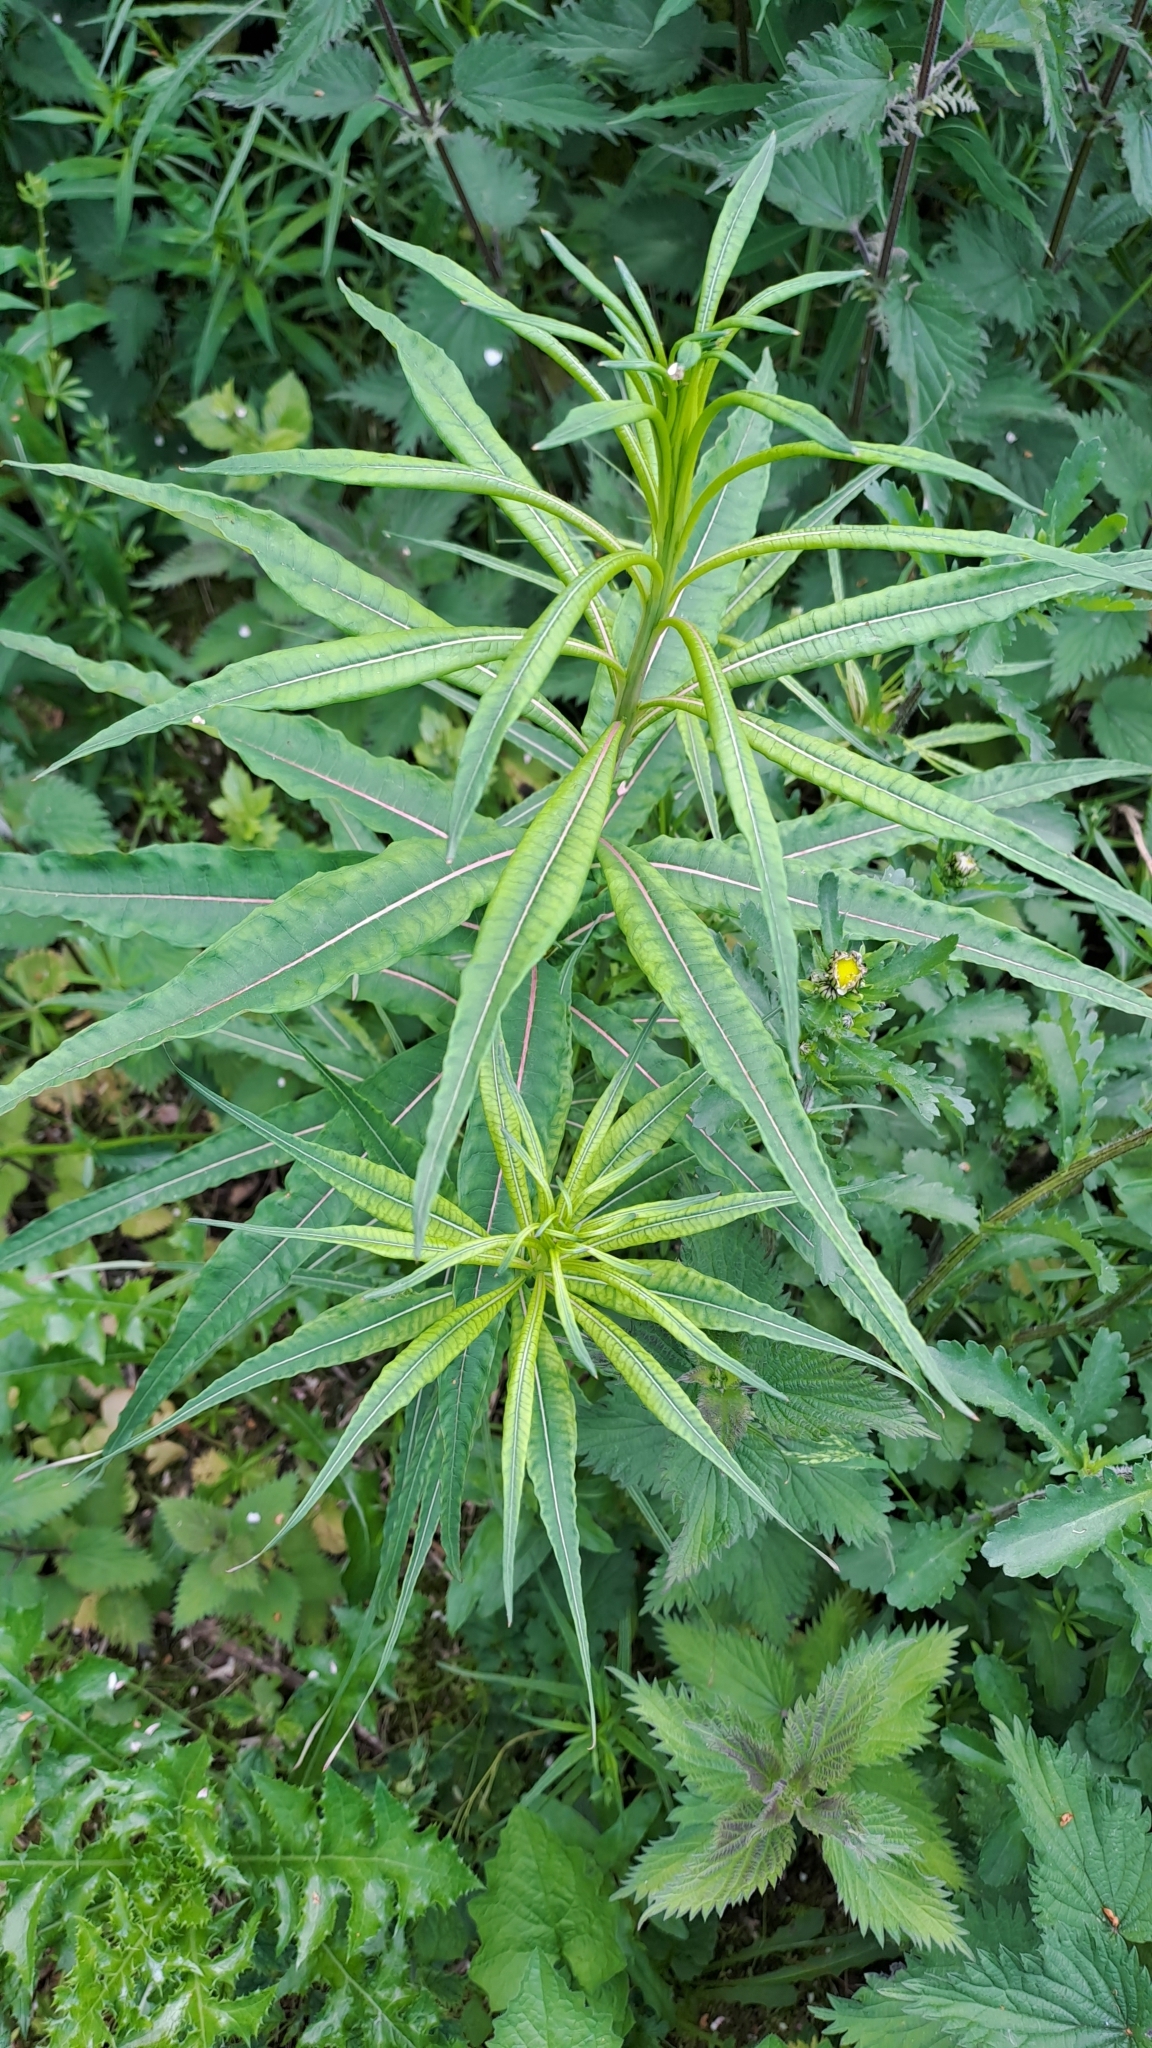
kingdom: Plantae
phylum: Tracheophyta
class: Magnoliopsida
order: Myrtales
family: Onagraceae
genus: Chamaenerion
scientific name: Chamaenerion angustifolium
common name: Fireweed
